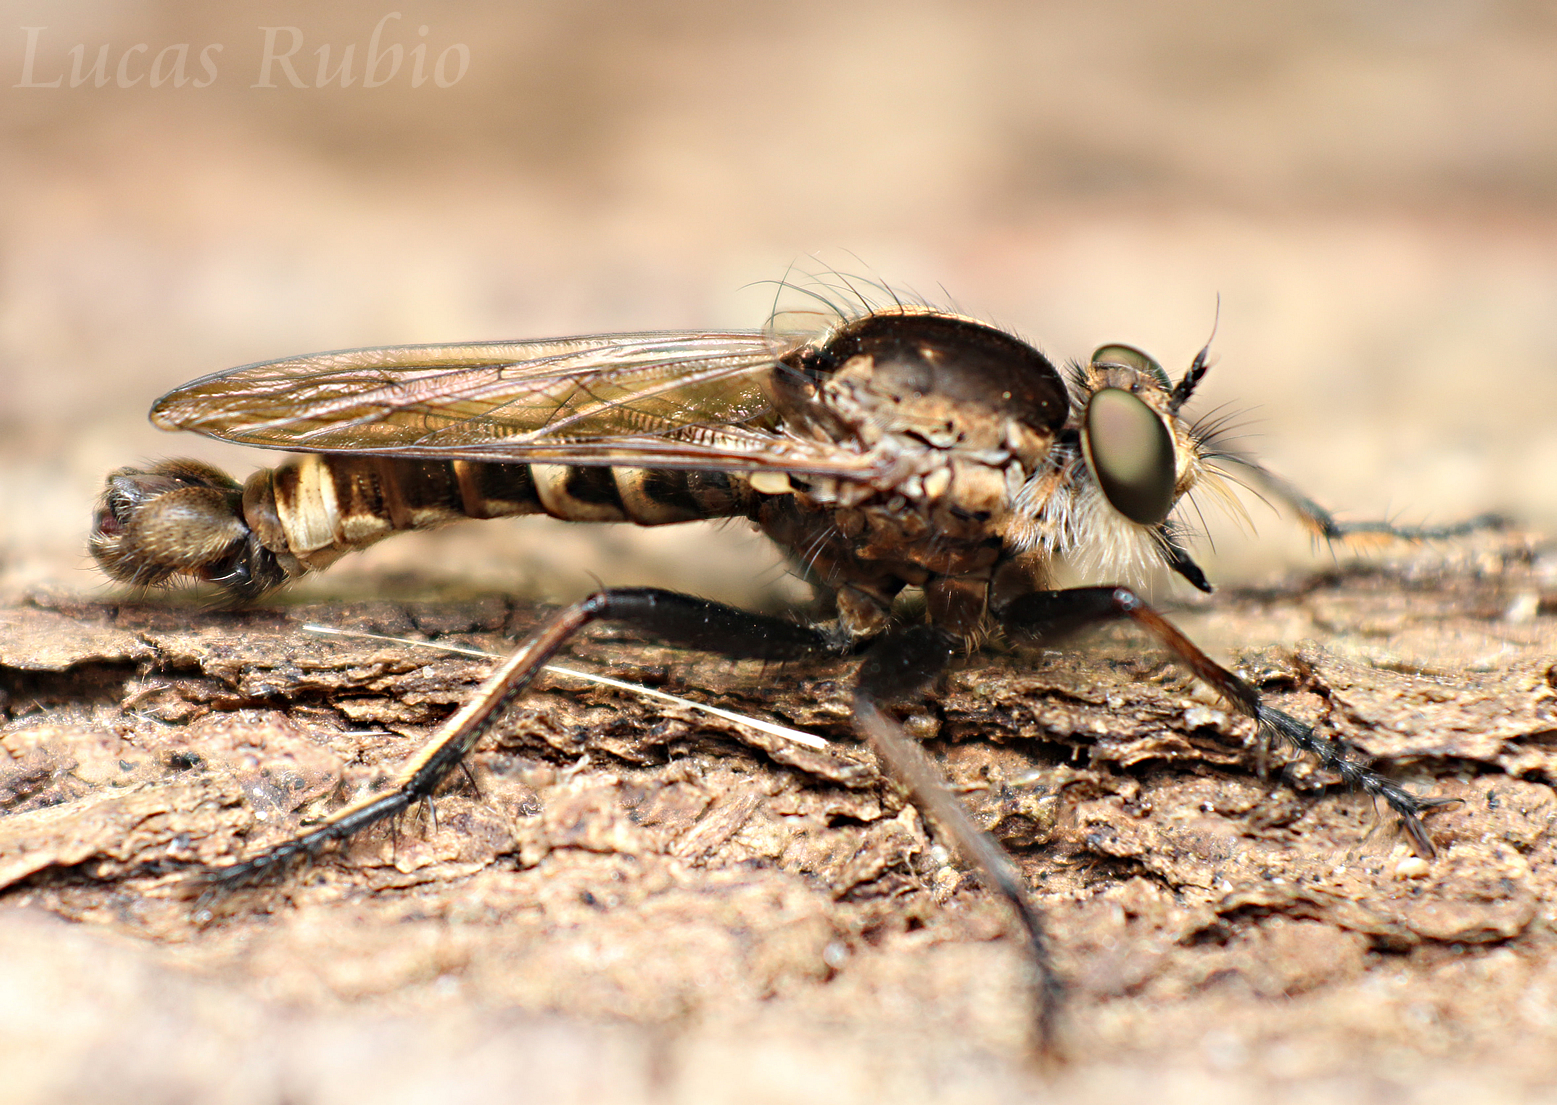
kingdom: Animalia
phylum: Arthropoda
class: Insecta
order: Diptera
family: Asilidae
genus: Eicherax
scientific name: Eicherax
